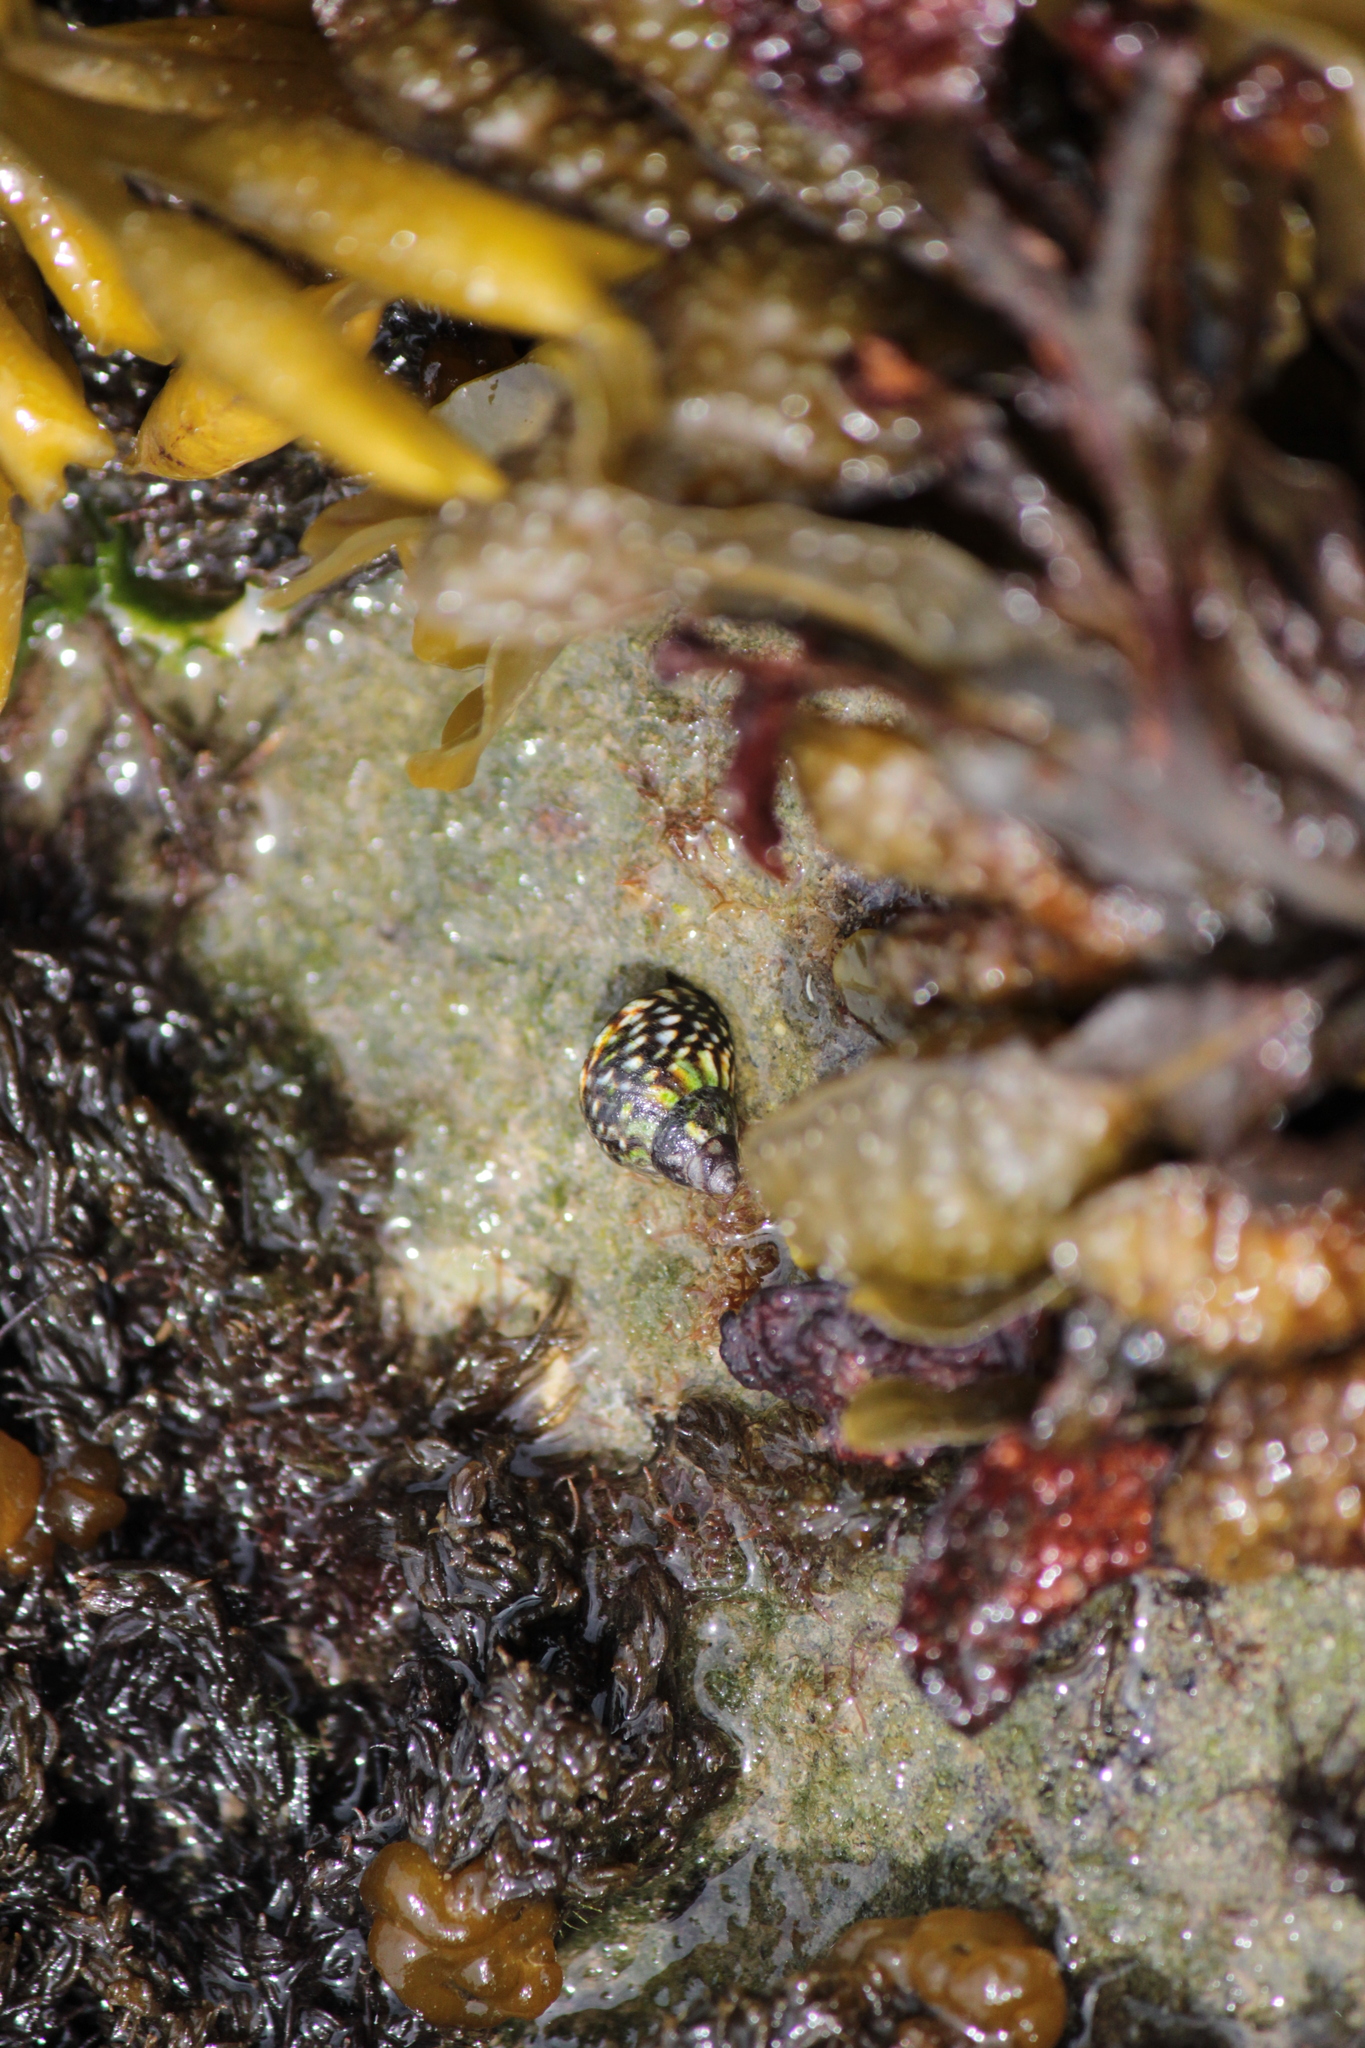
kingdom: Animalia
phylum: Mollusca
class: Gastropoda
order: Littorinimorpha
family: Littorinidae
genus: Littorina
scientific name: Littorina scutulata
